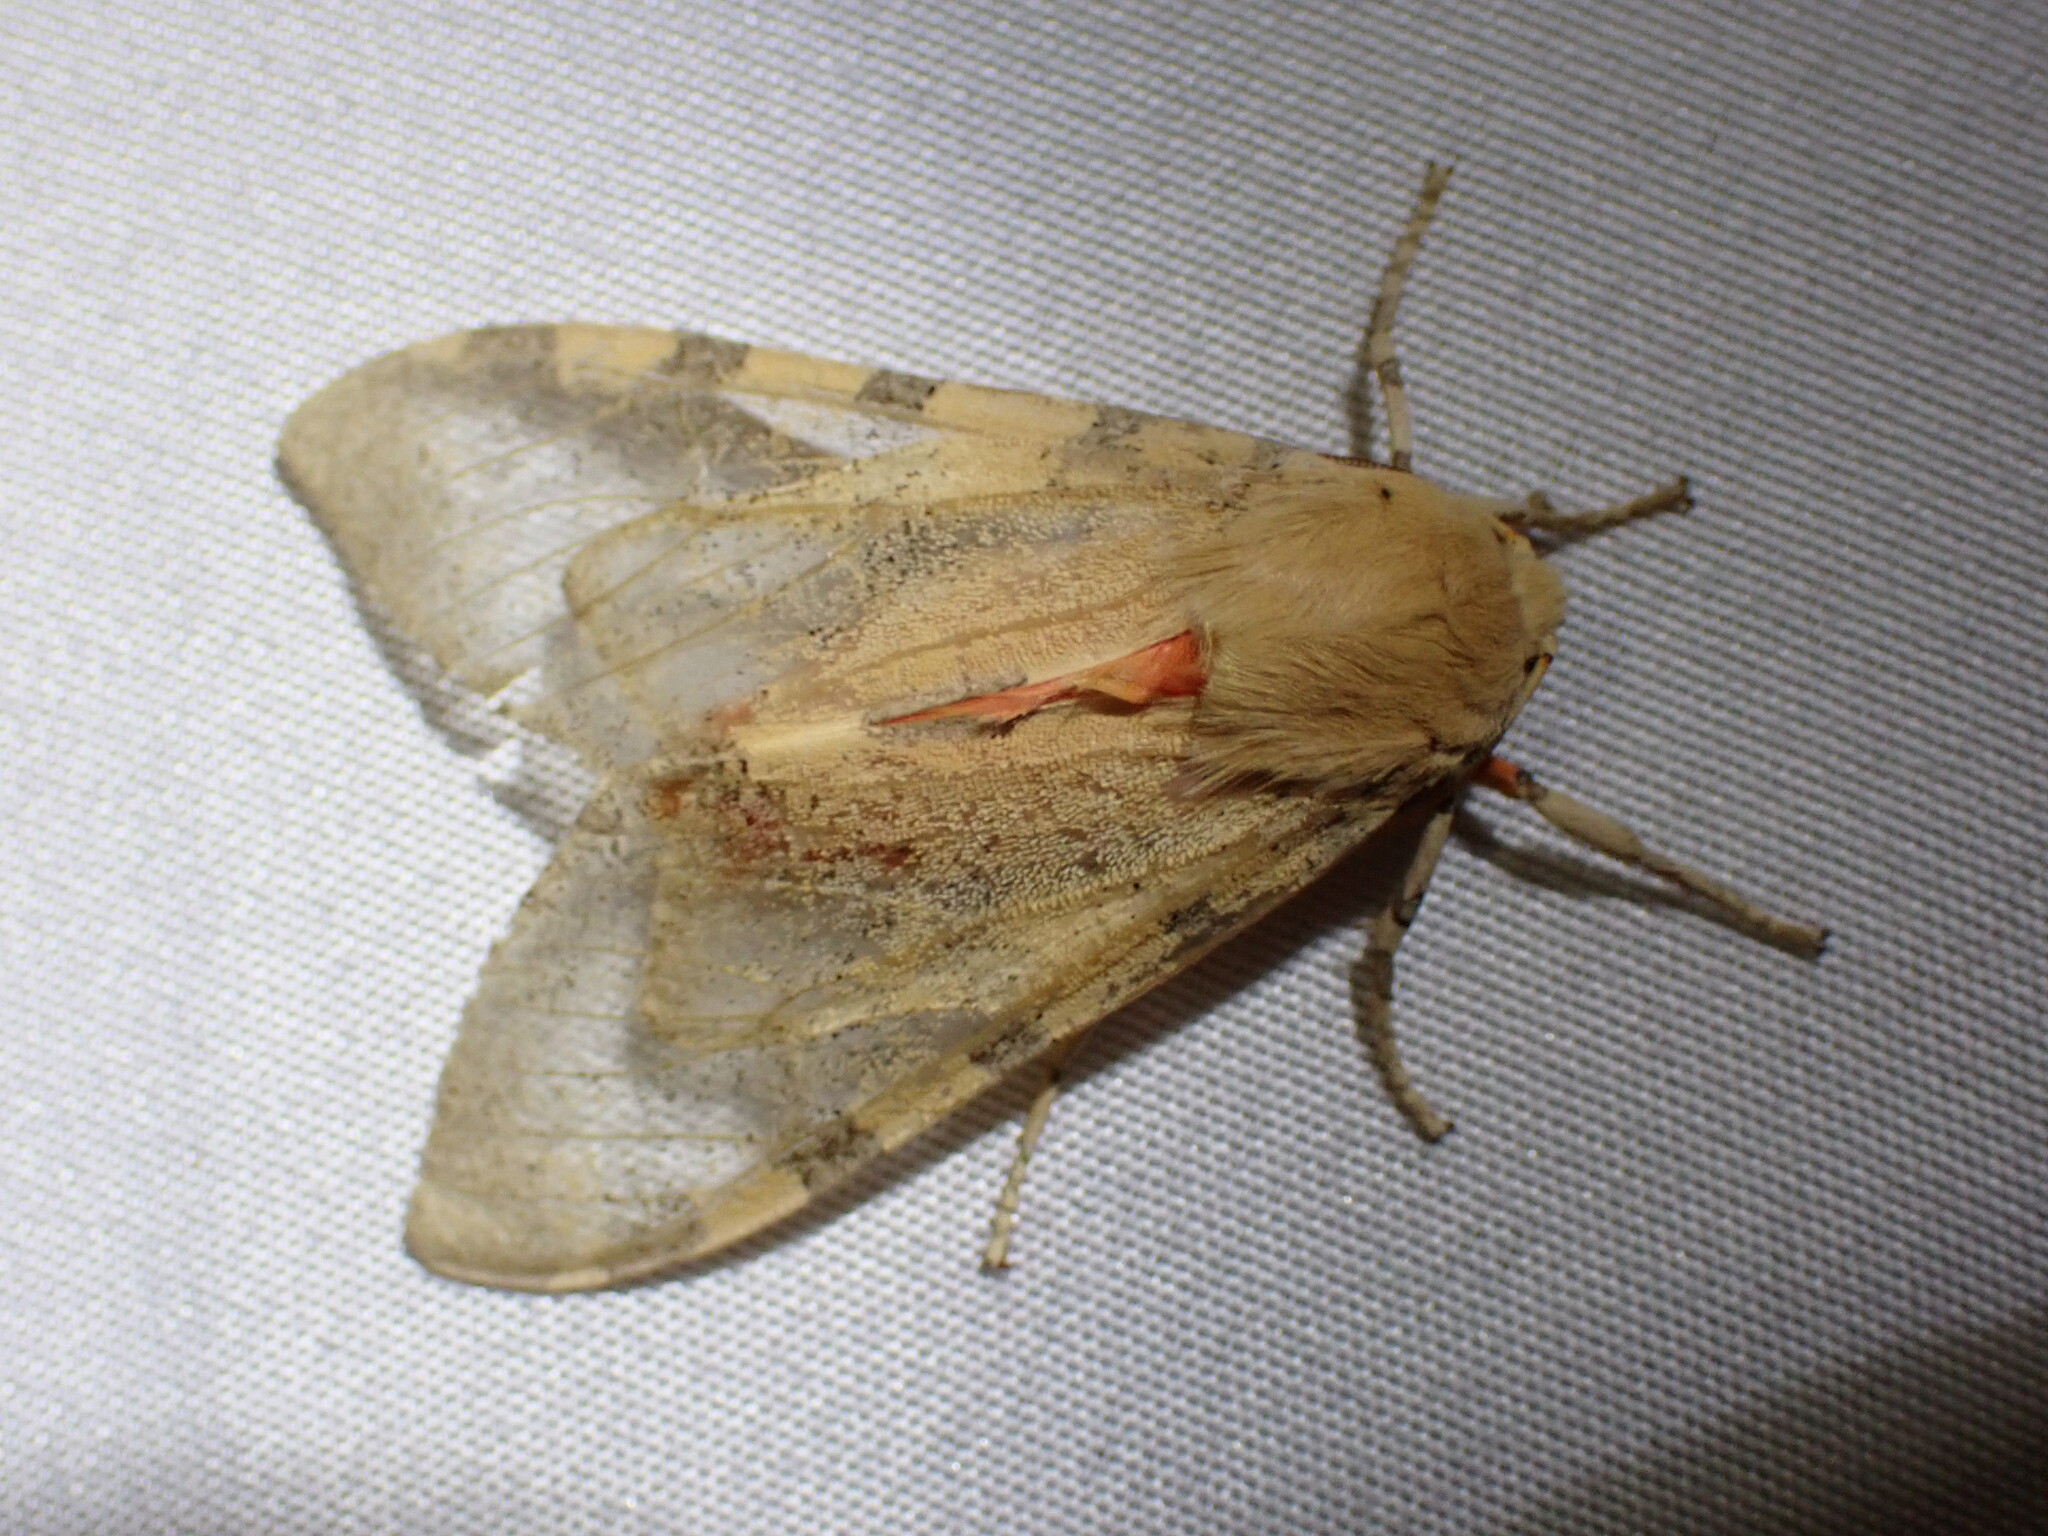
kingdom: Animalia
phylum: Arthropoda
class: Insecta
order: Lepidoptera
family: Erebidae
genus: Hemihyalea
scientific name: Hemihyalea edwardsii
